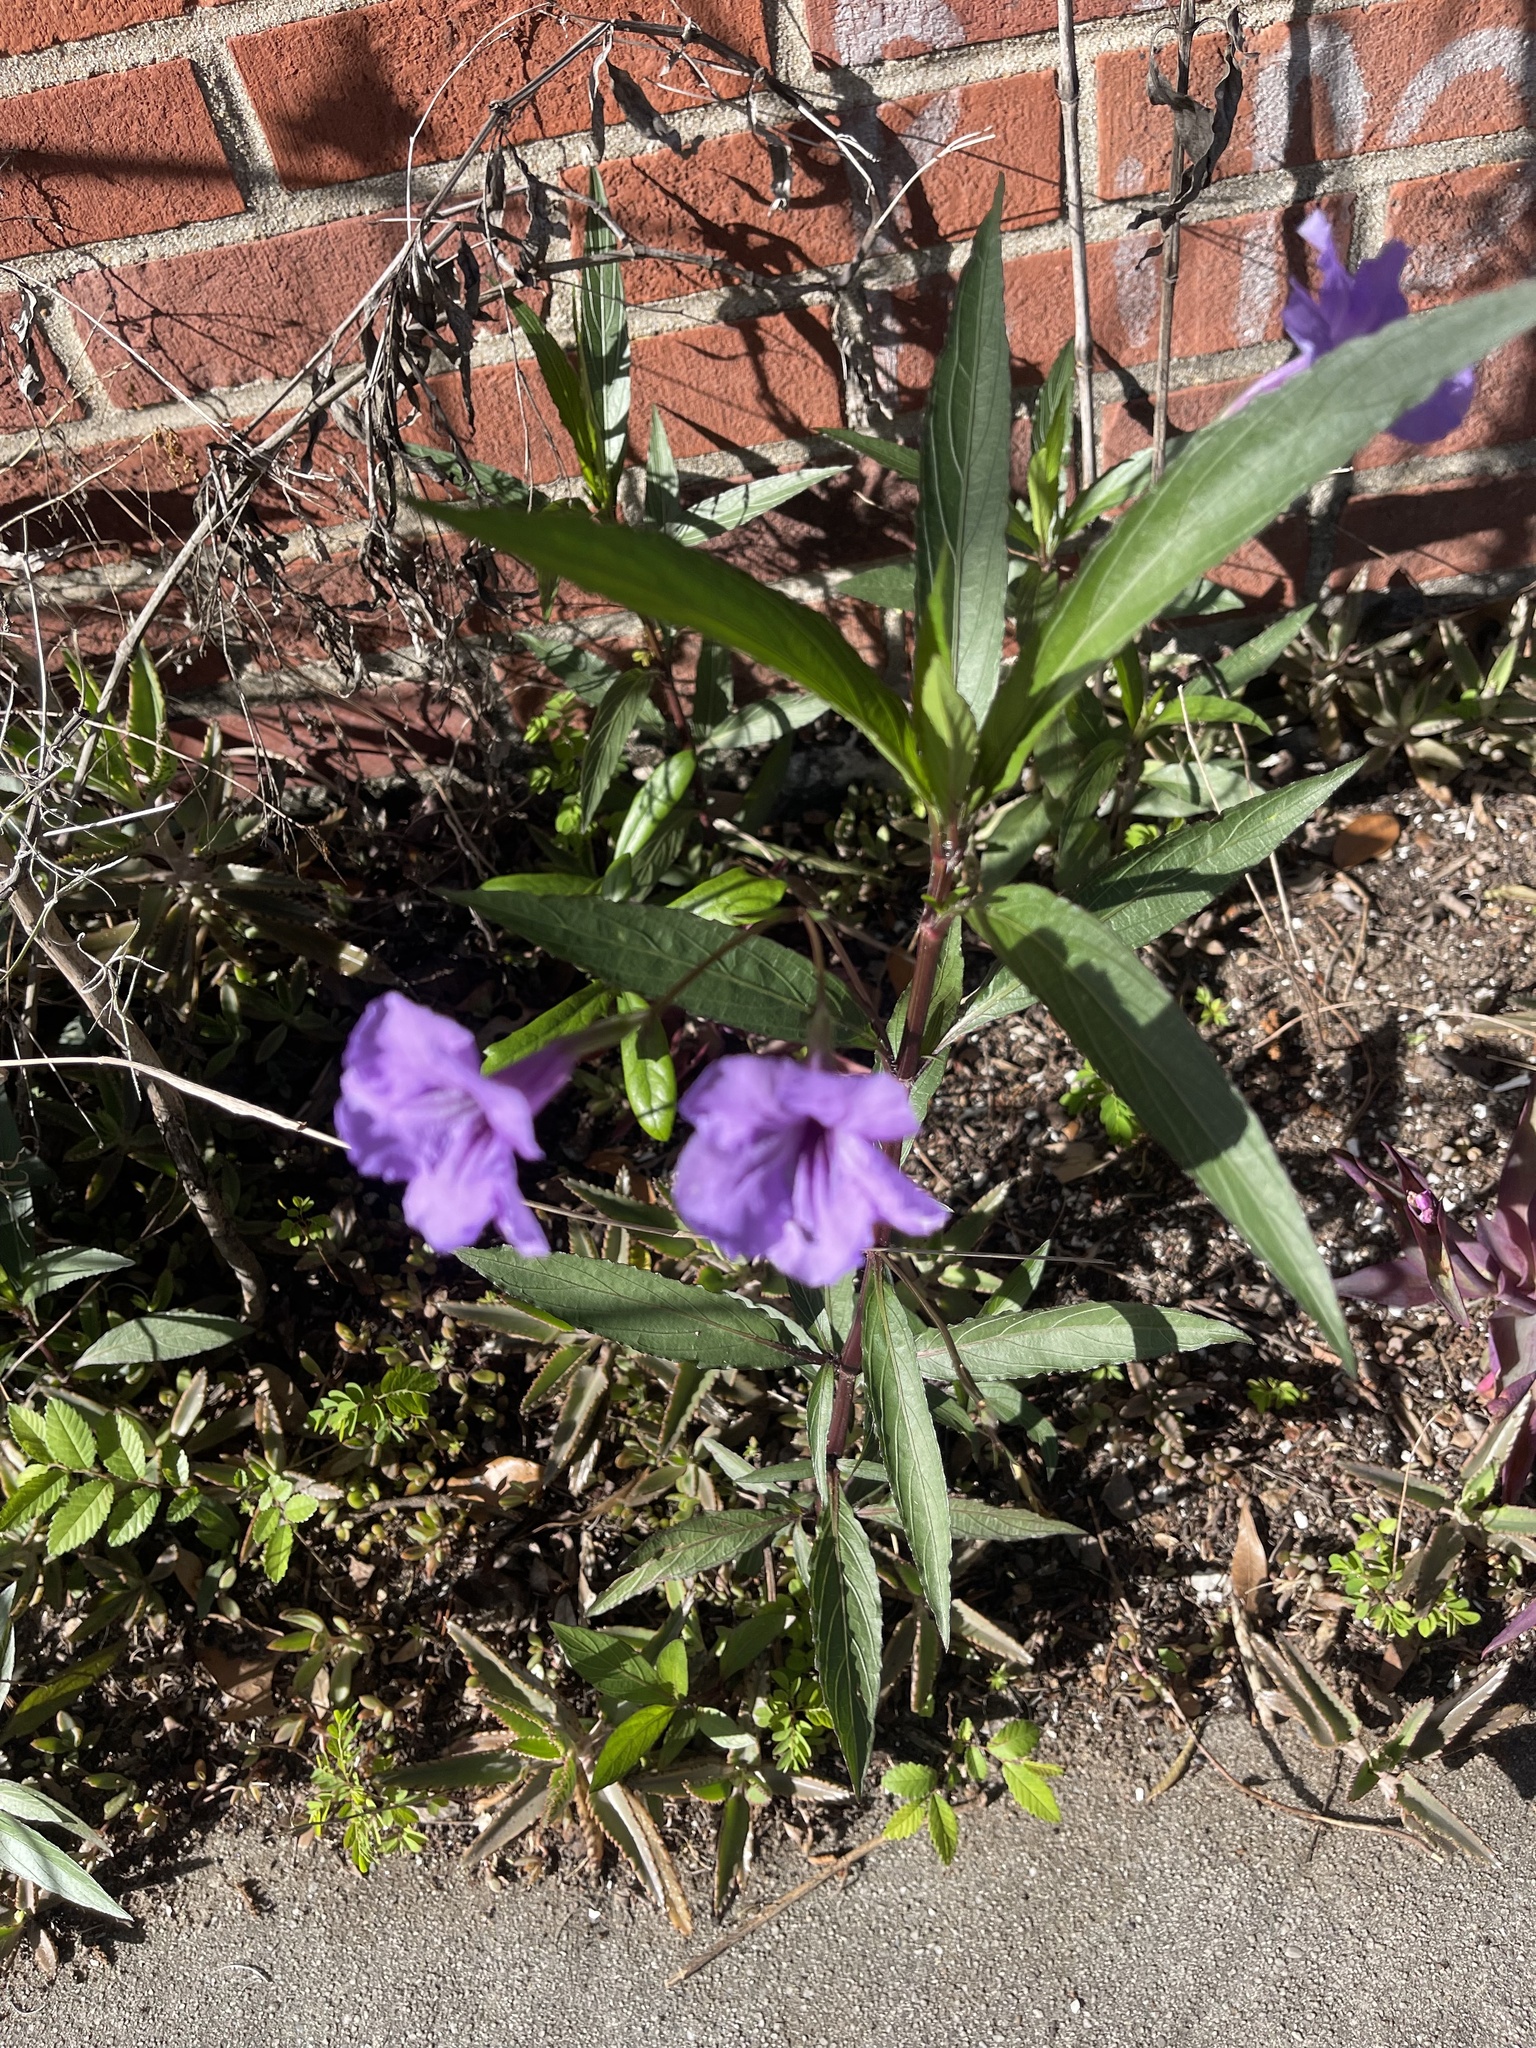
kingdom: Plantae
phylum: Tracheophyta
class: Magnoliopsida
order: Lamiales
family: Acanthaceae
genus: Ruellia
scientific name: Ruellia simplex
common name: Softseed wild petunia
